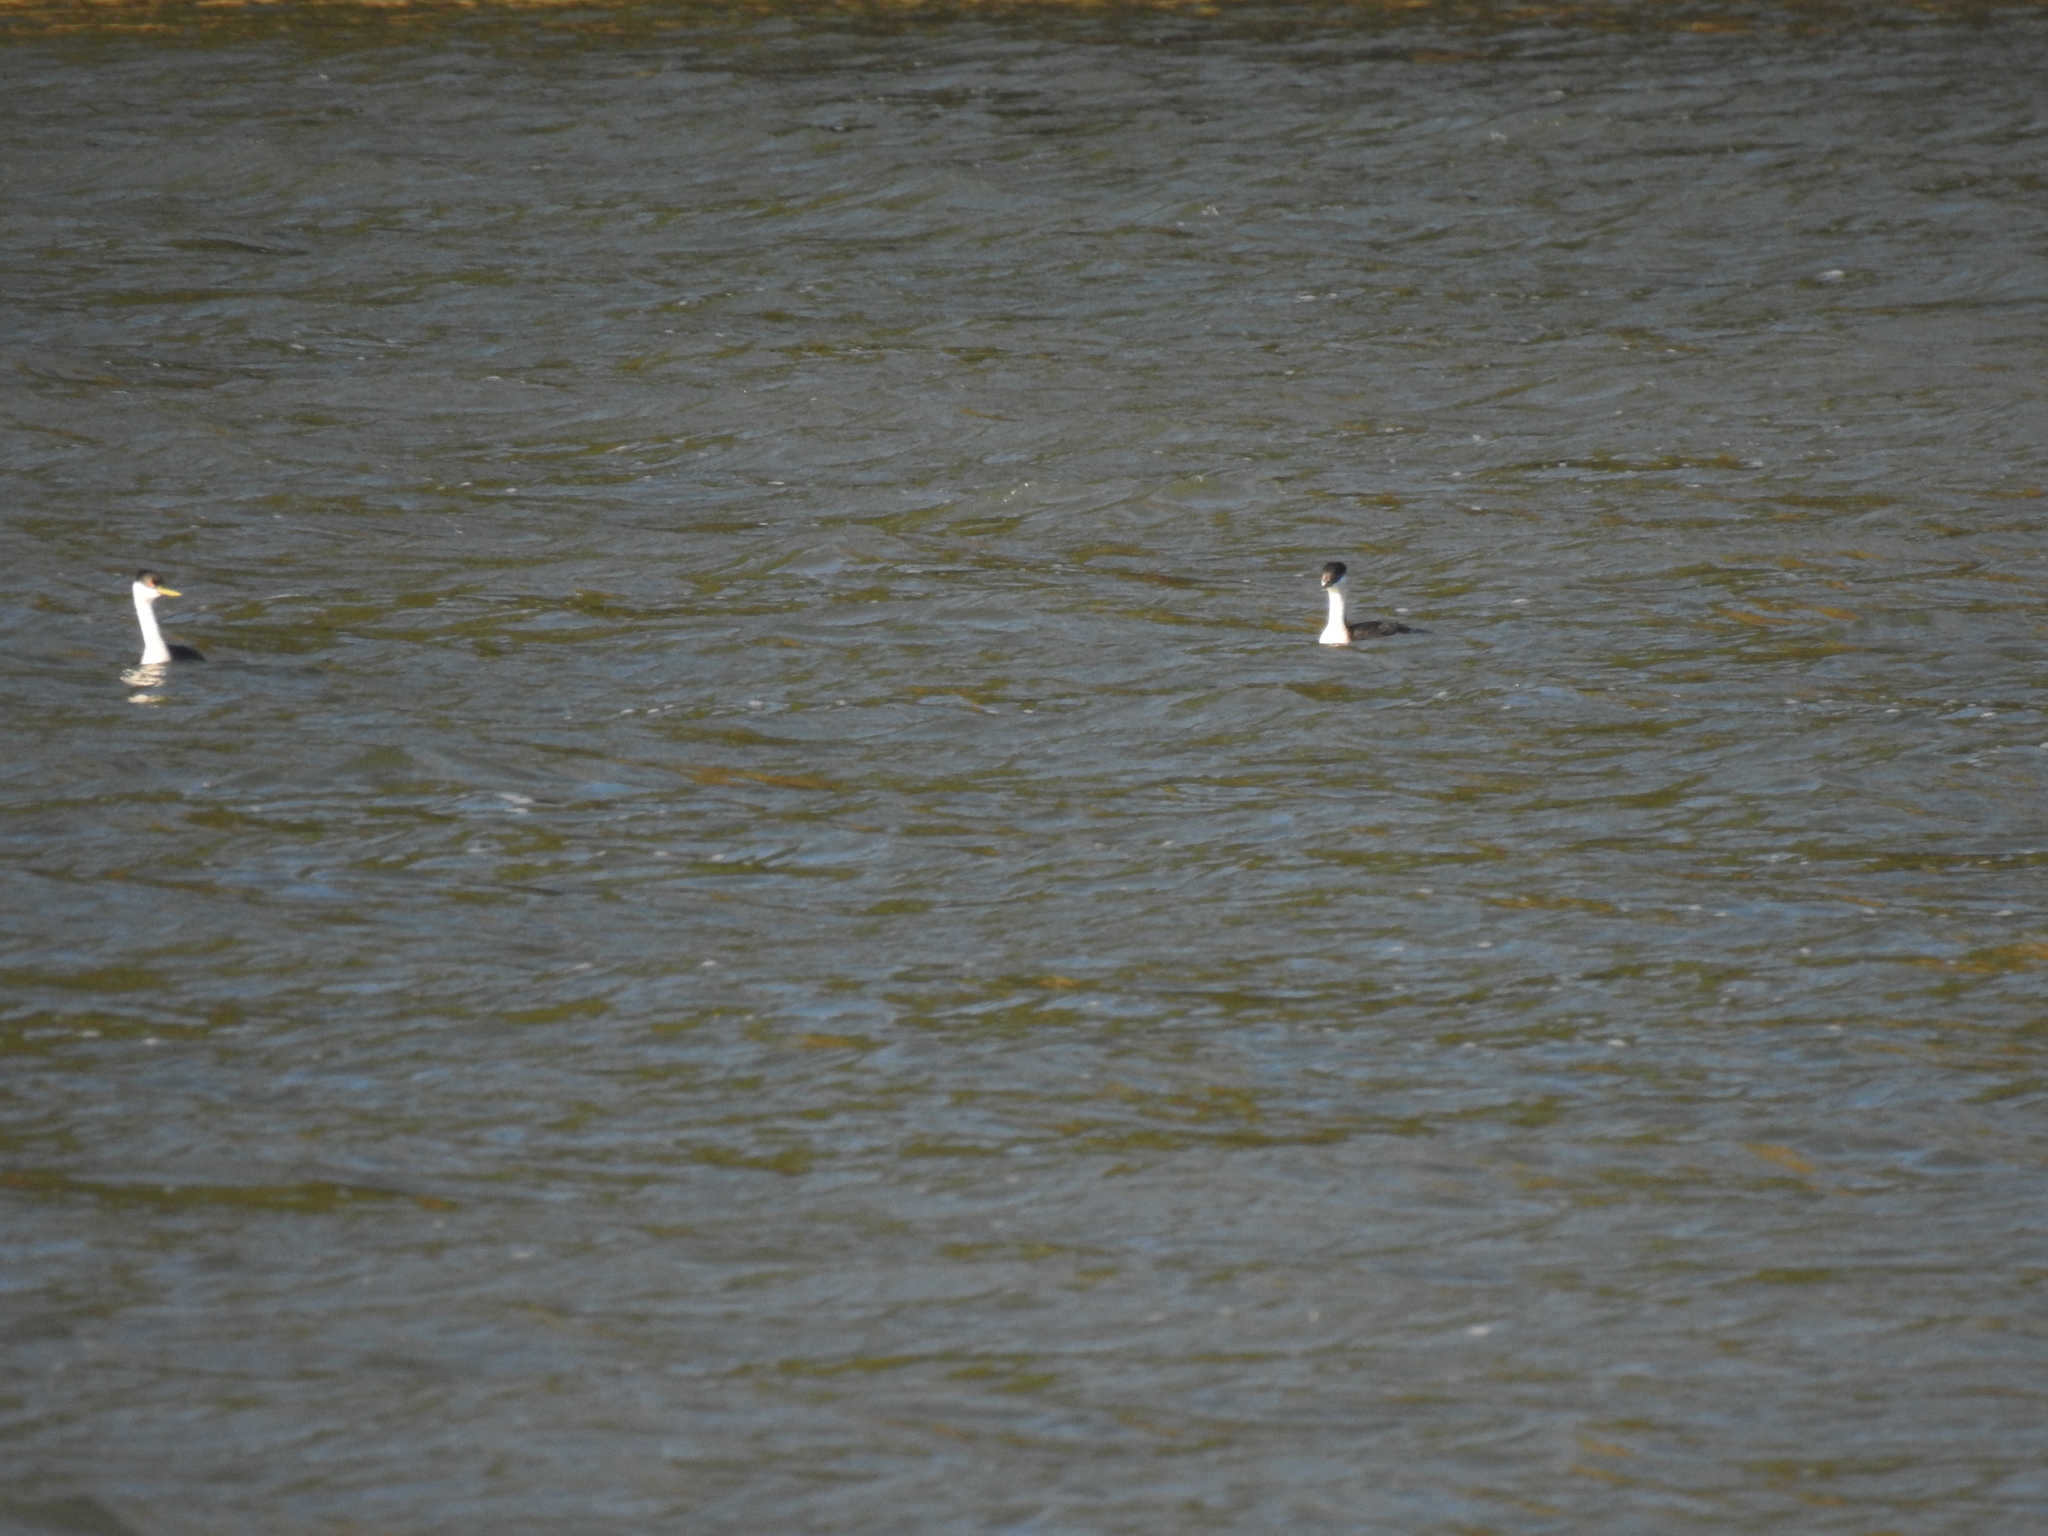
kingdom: Animalia
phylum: Chordata
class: Aves
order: Podicipediformes
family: Podicipedidae
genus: Aechmophorus
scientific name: Aechmophorus occidentalis
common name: Western grebe
